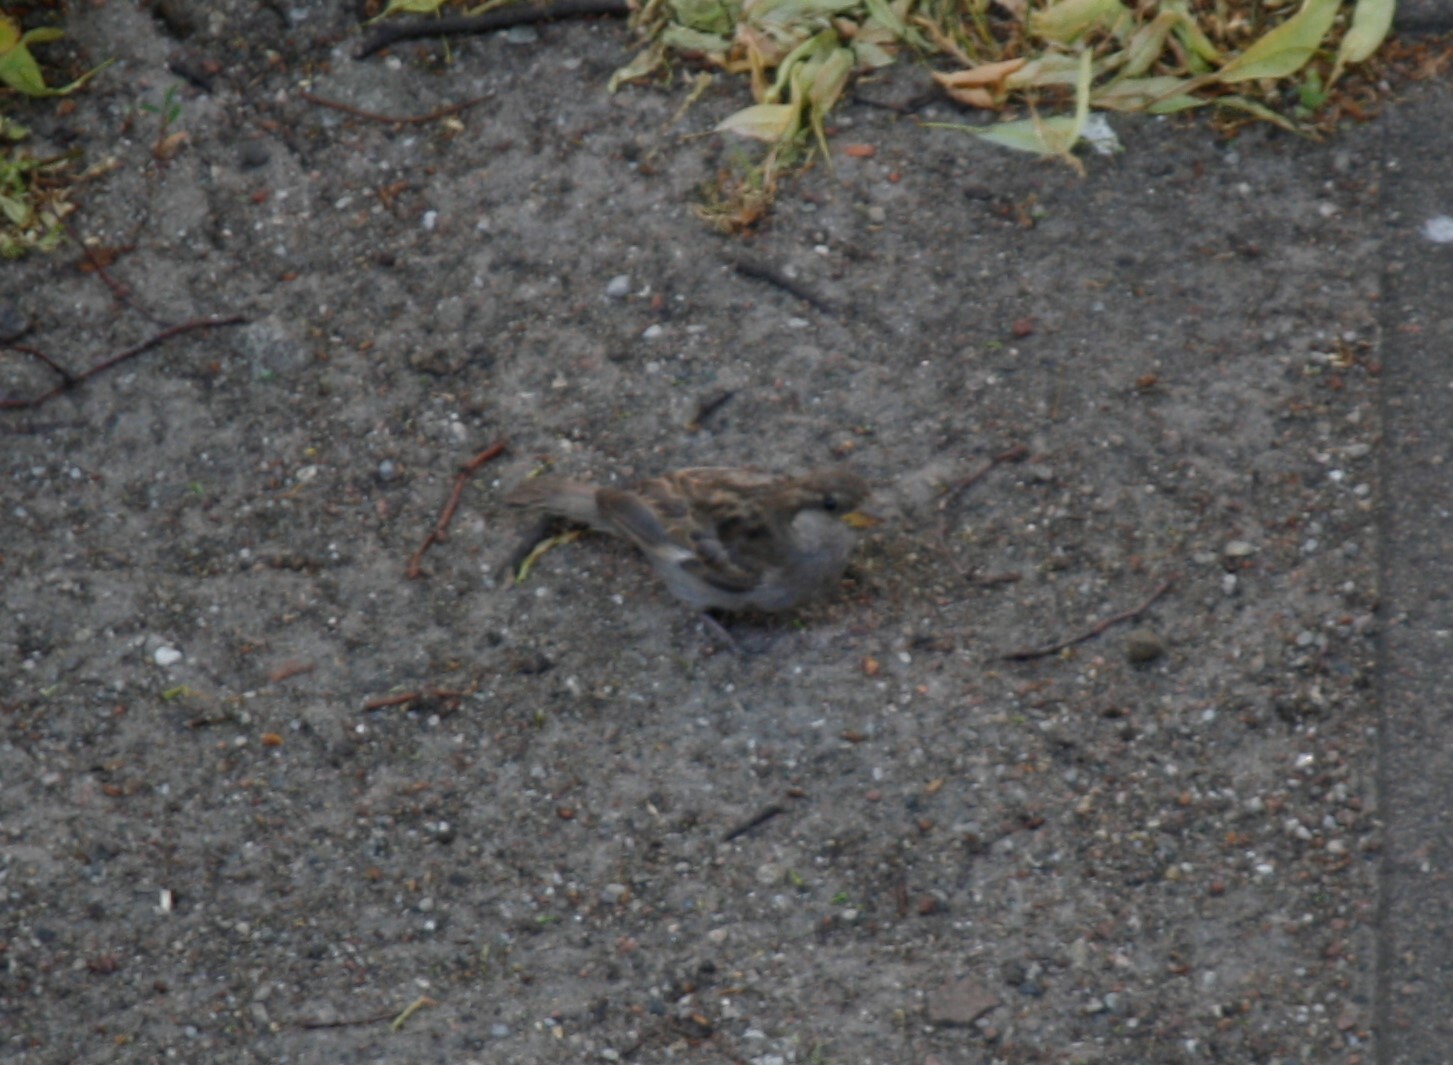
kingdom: Animalia
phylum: Chordata
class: Aves
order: Passeriformes
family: Passeridae
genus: Passer
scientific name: Passer domesticus
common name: House sparrow
